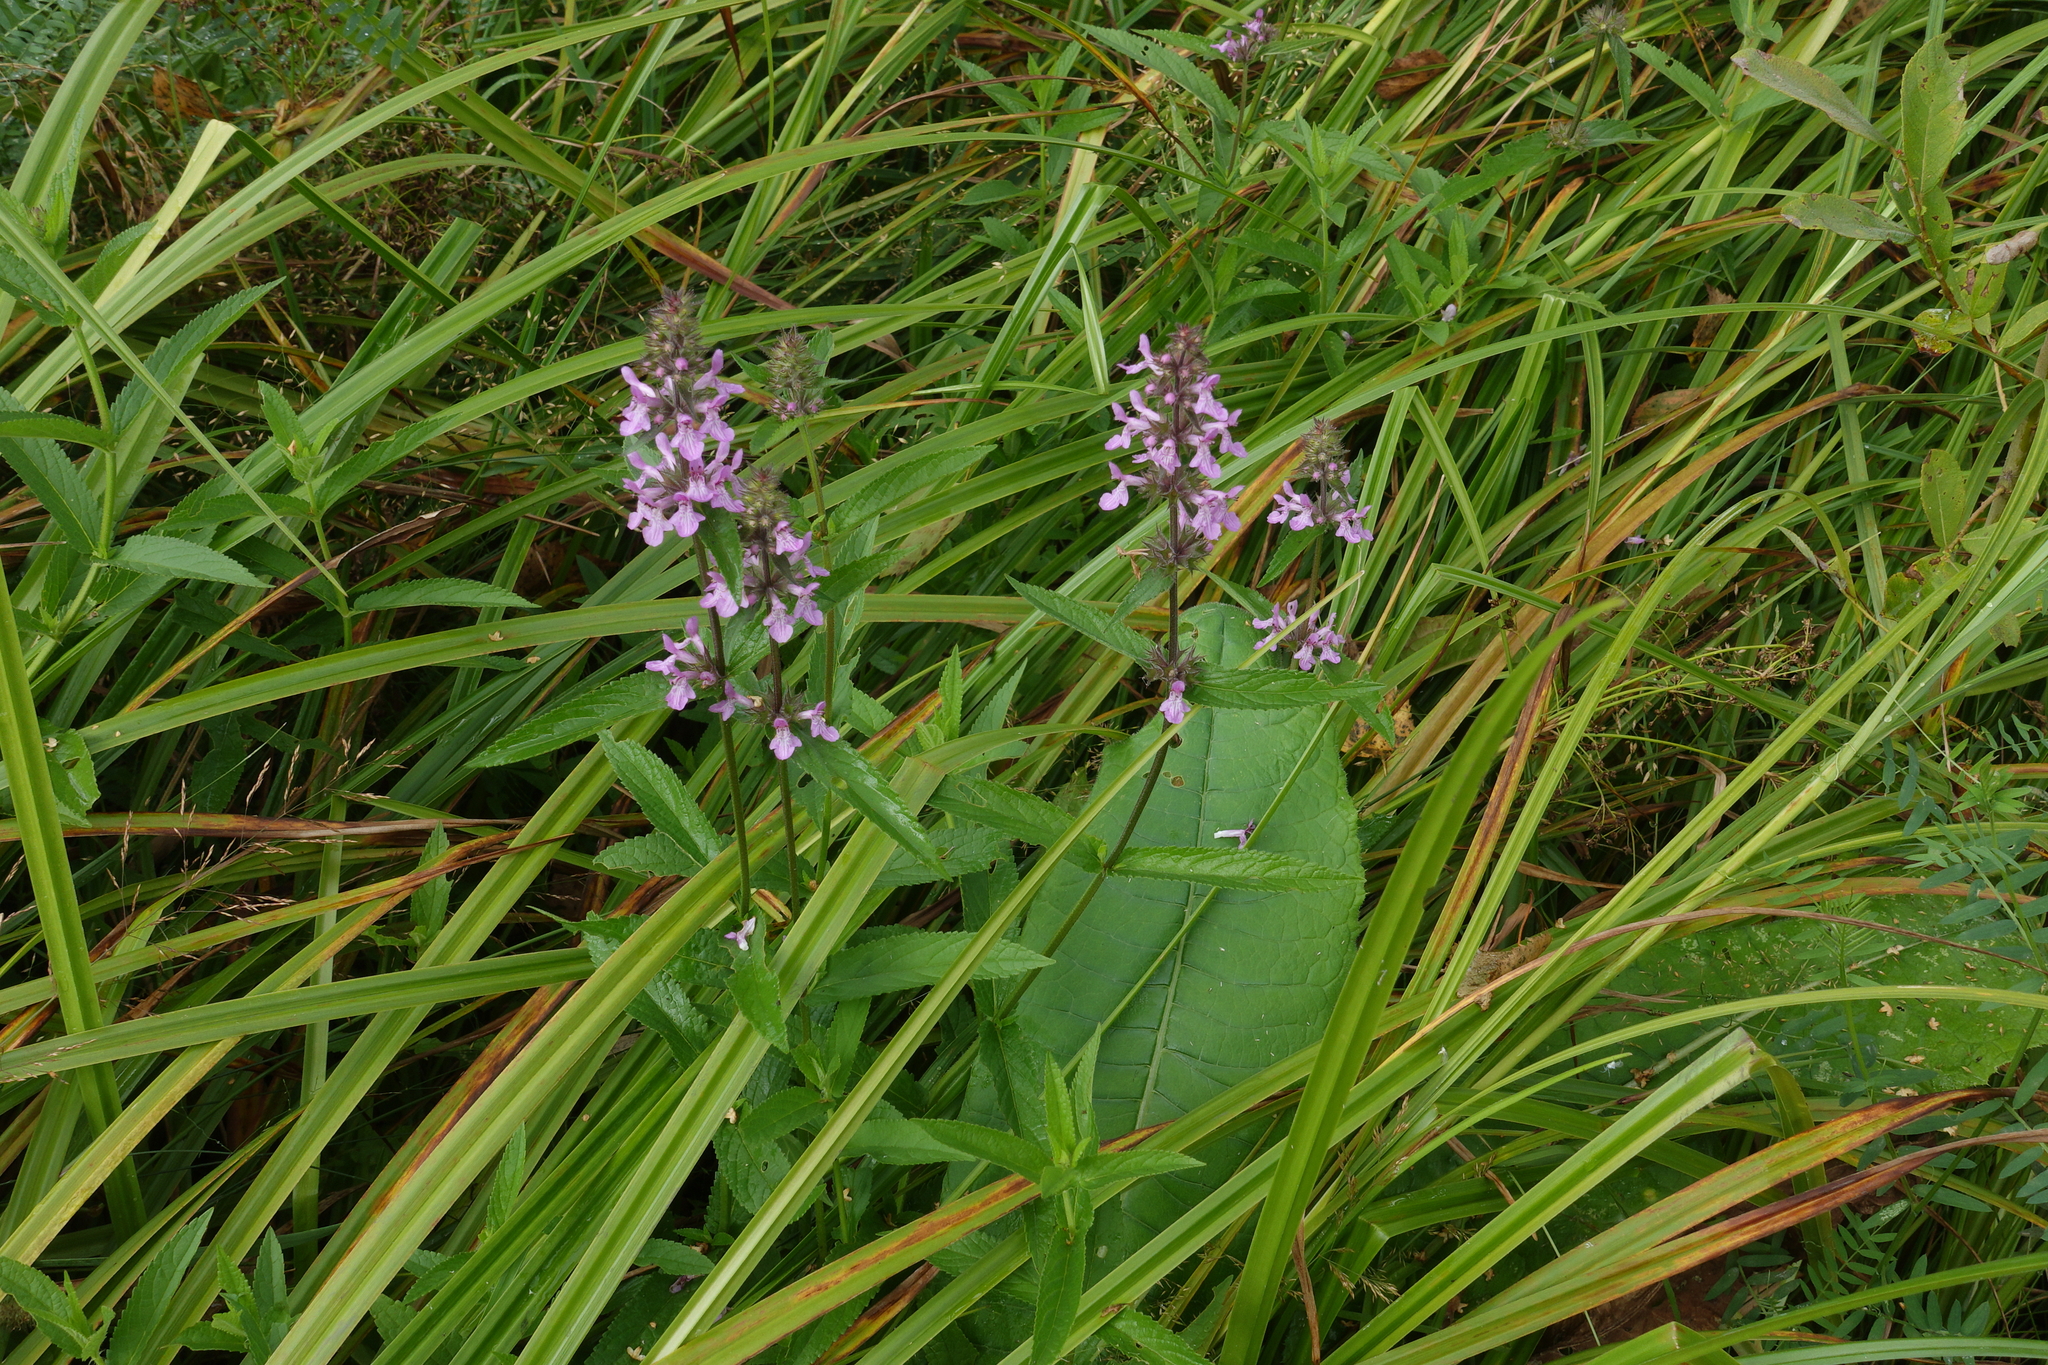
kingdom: Plantae
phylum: Tracheophyta
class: Magnoliopsida
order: Lamiales
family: Lamiaceae
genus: Stachys
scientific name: Stachys palustris
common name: Marsh woundwort
